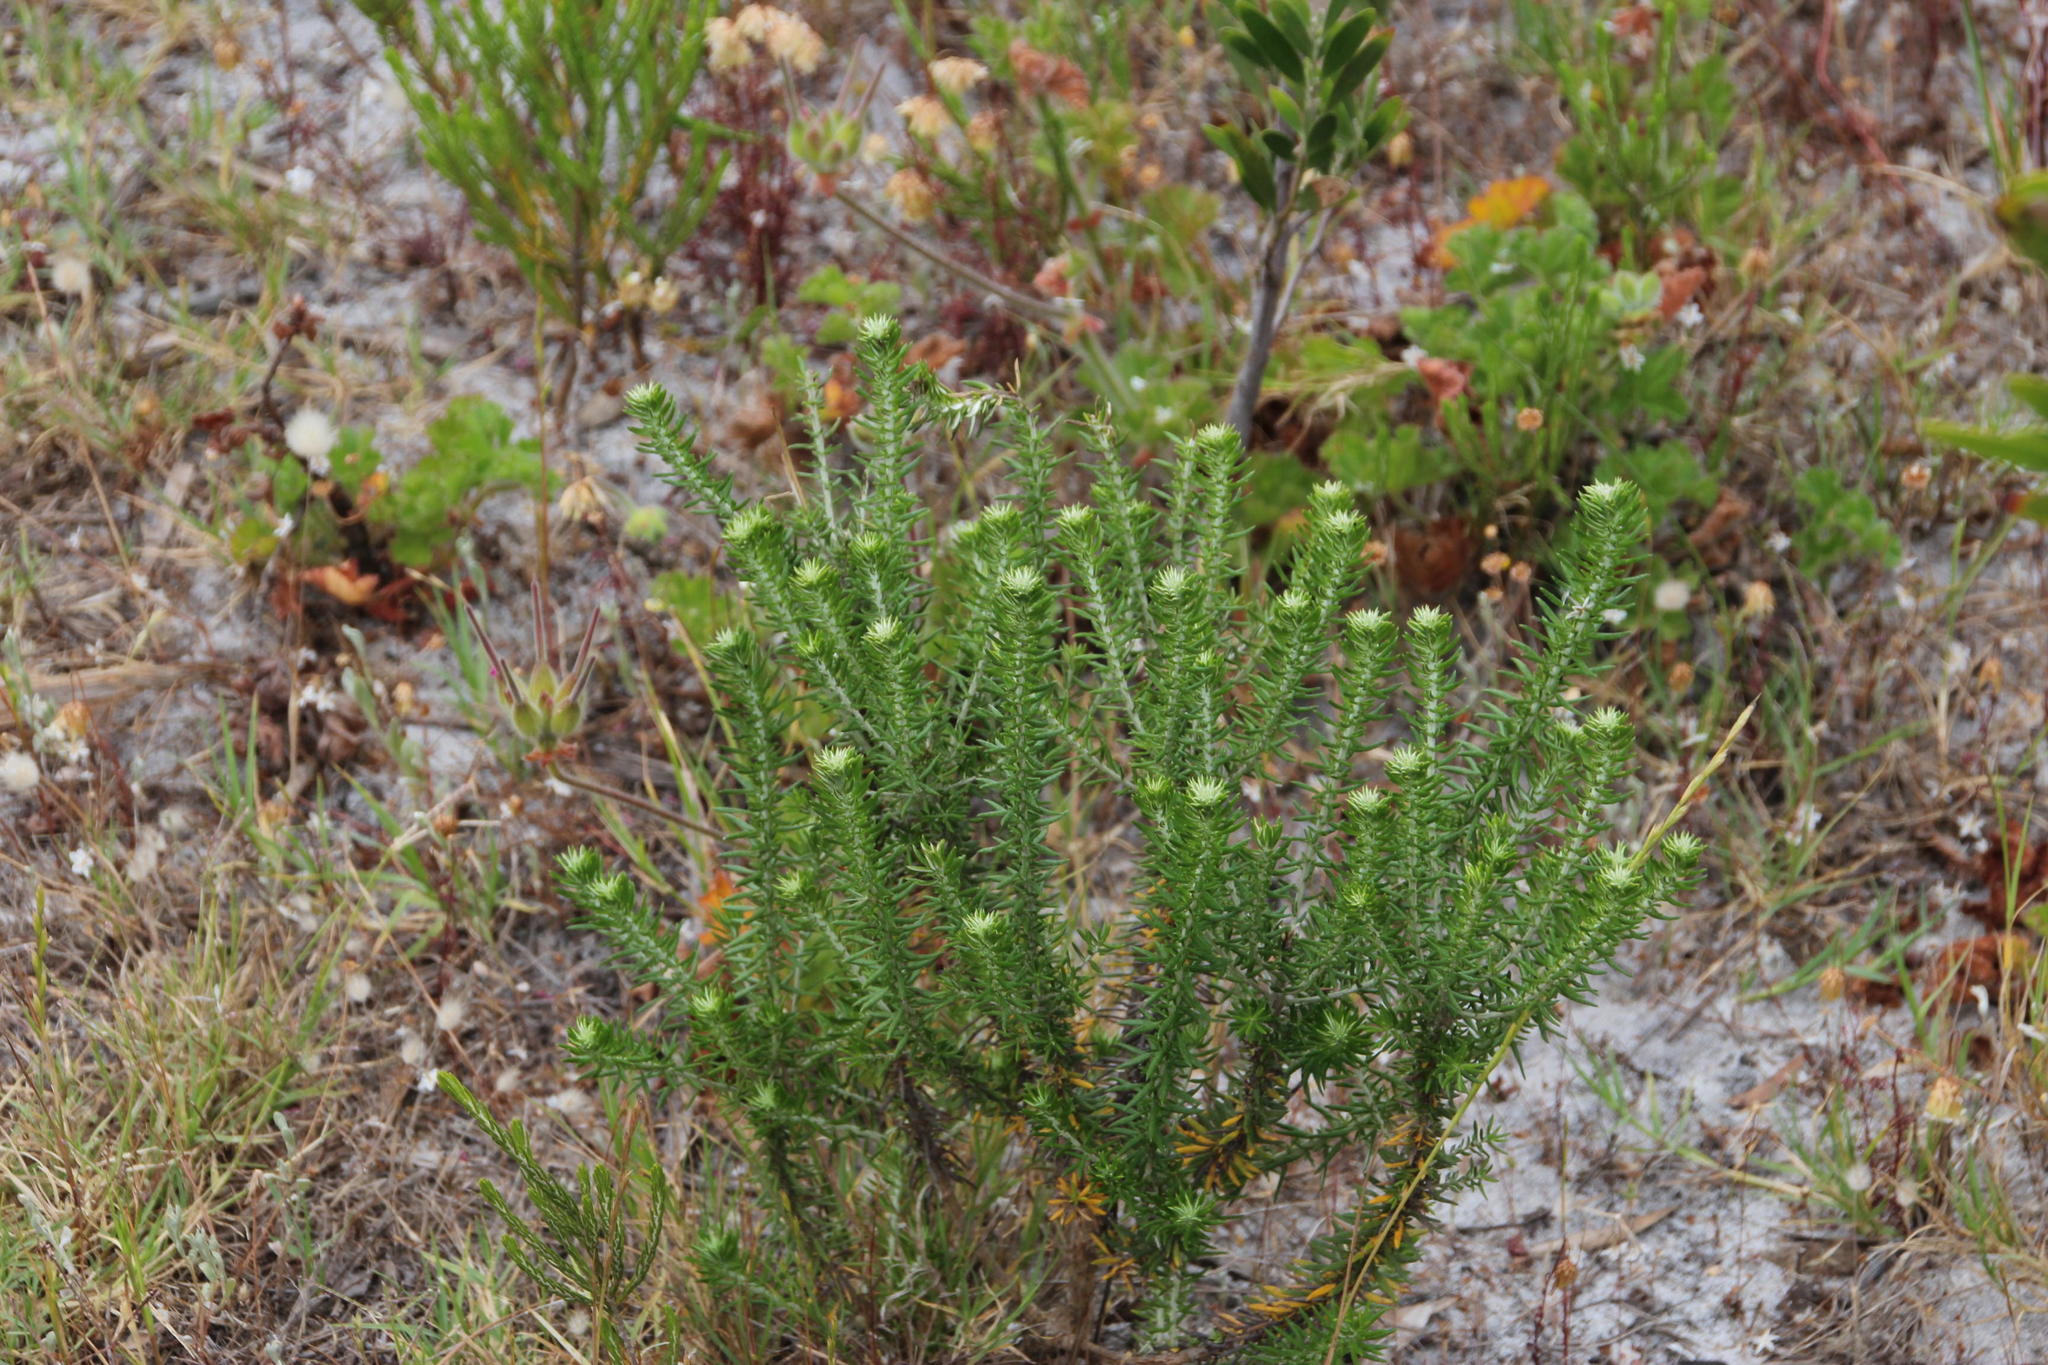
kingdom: Plantae
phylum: Tracheophyta
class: Magnoliopsida
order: Asterales
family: Asteraceae
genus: Metalasia
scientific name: Metalasia densa
